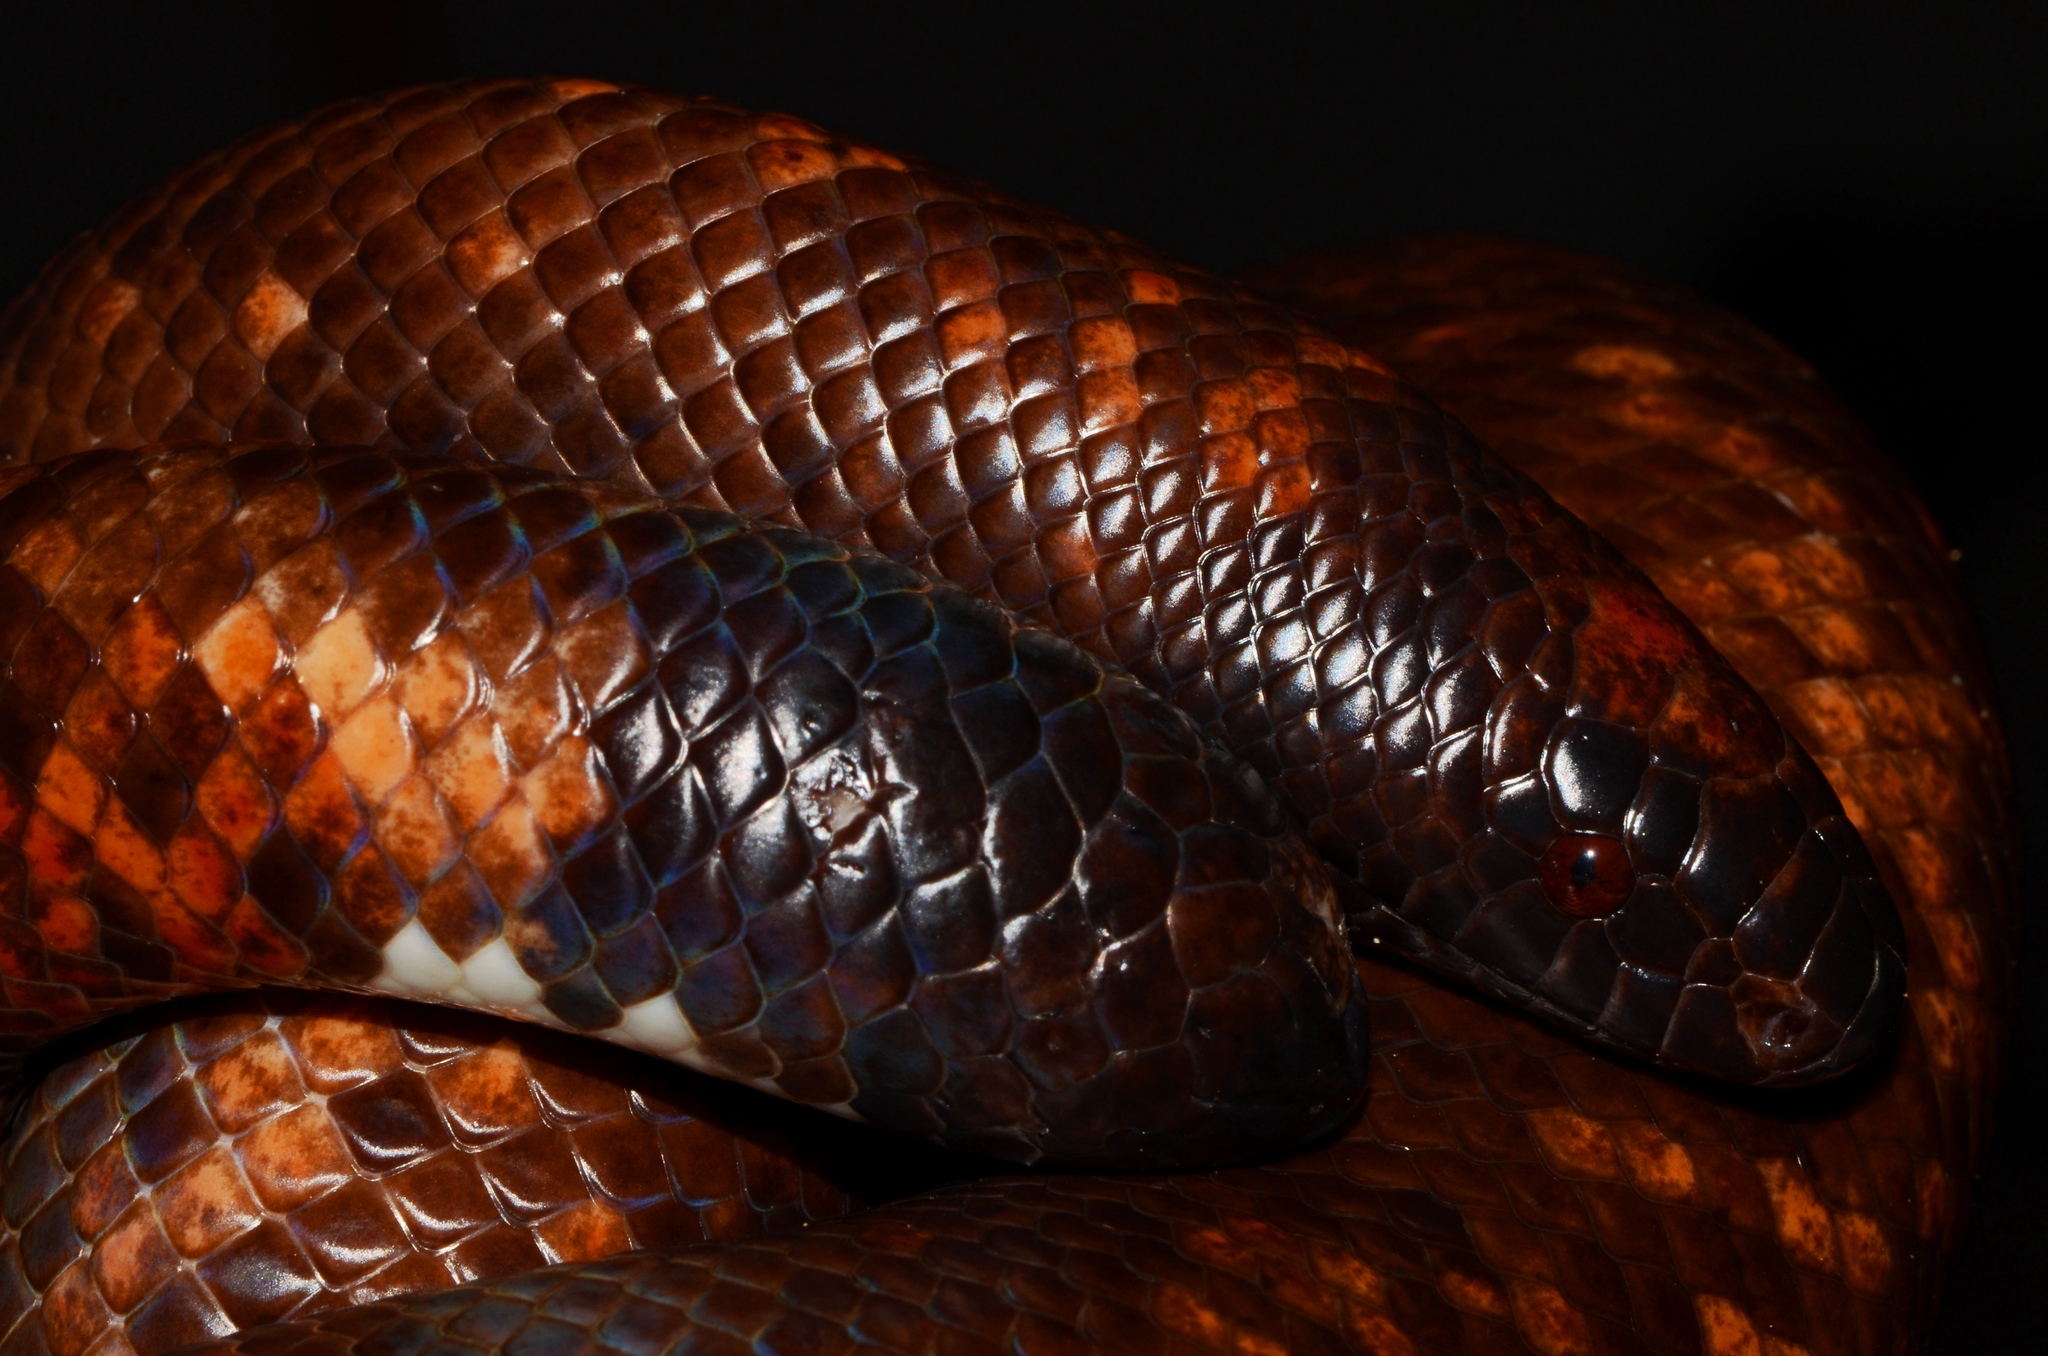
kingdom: Animalia
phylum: Chordata
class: Squamata
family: Boidae
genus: Calabaria
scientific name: Calabaria reinhardtii
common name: African burrowing python
